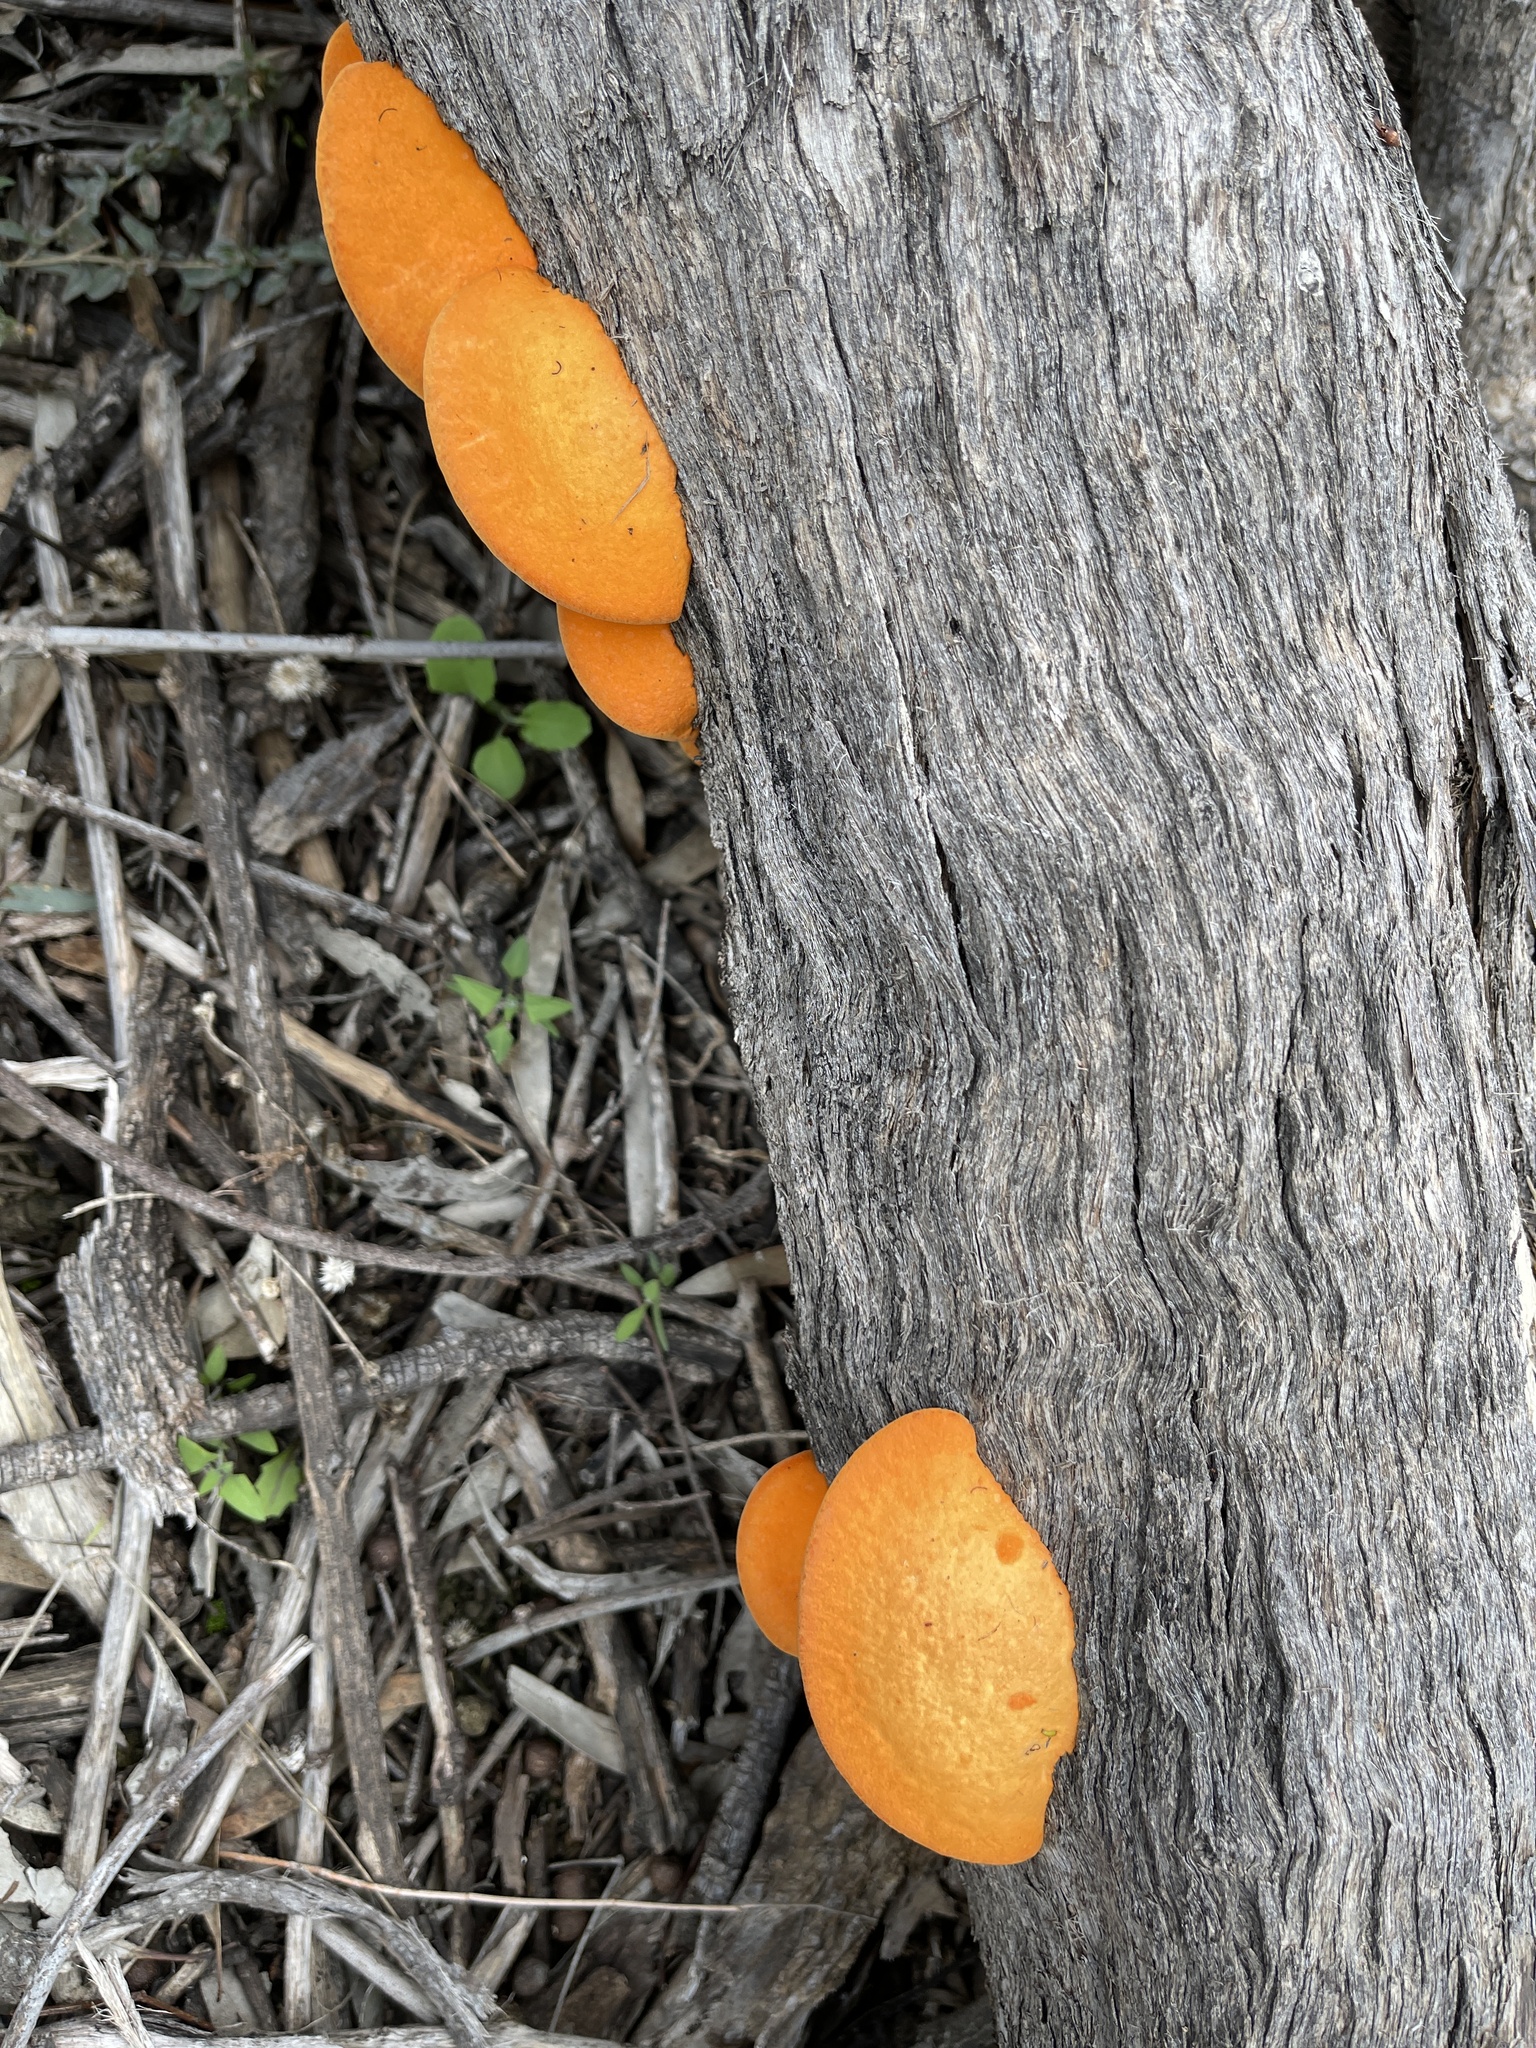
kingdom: Fungi
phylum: Basidiomycota
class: Agaricomycetes
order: Polyporales
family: Polyporaceae
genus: Trametes
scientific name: Trametes coccinea
